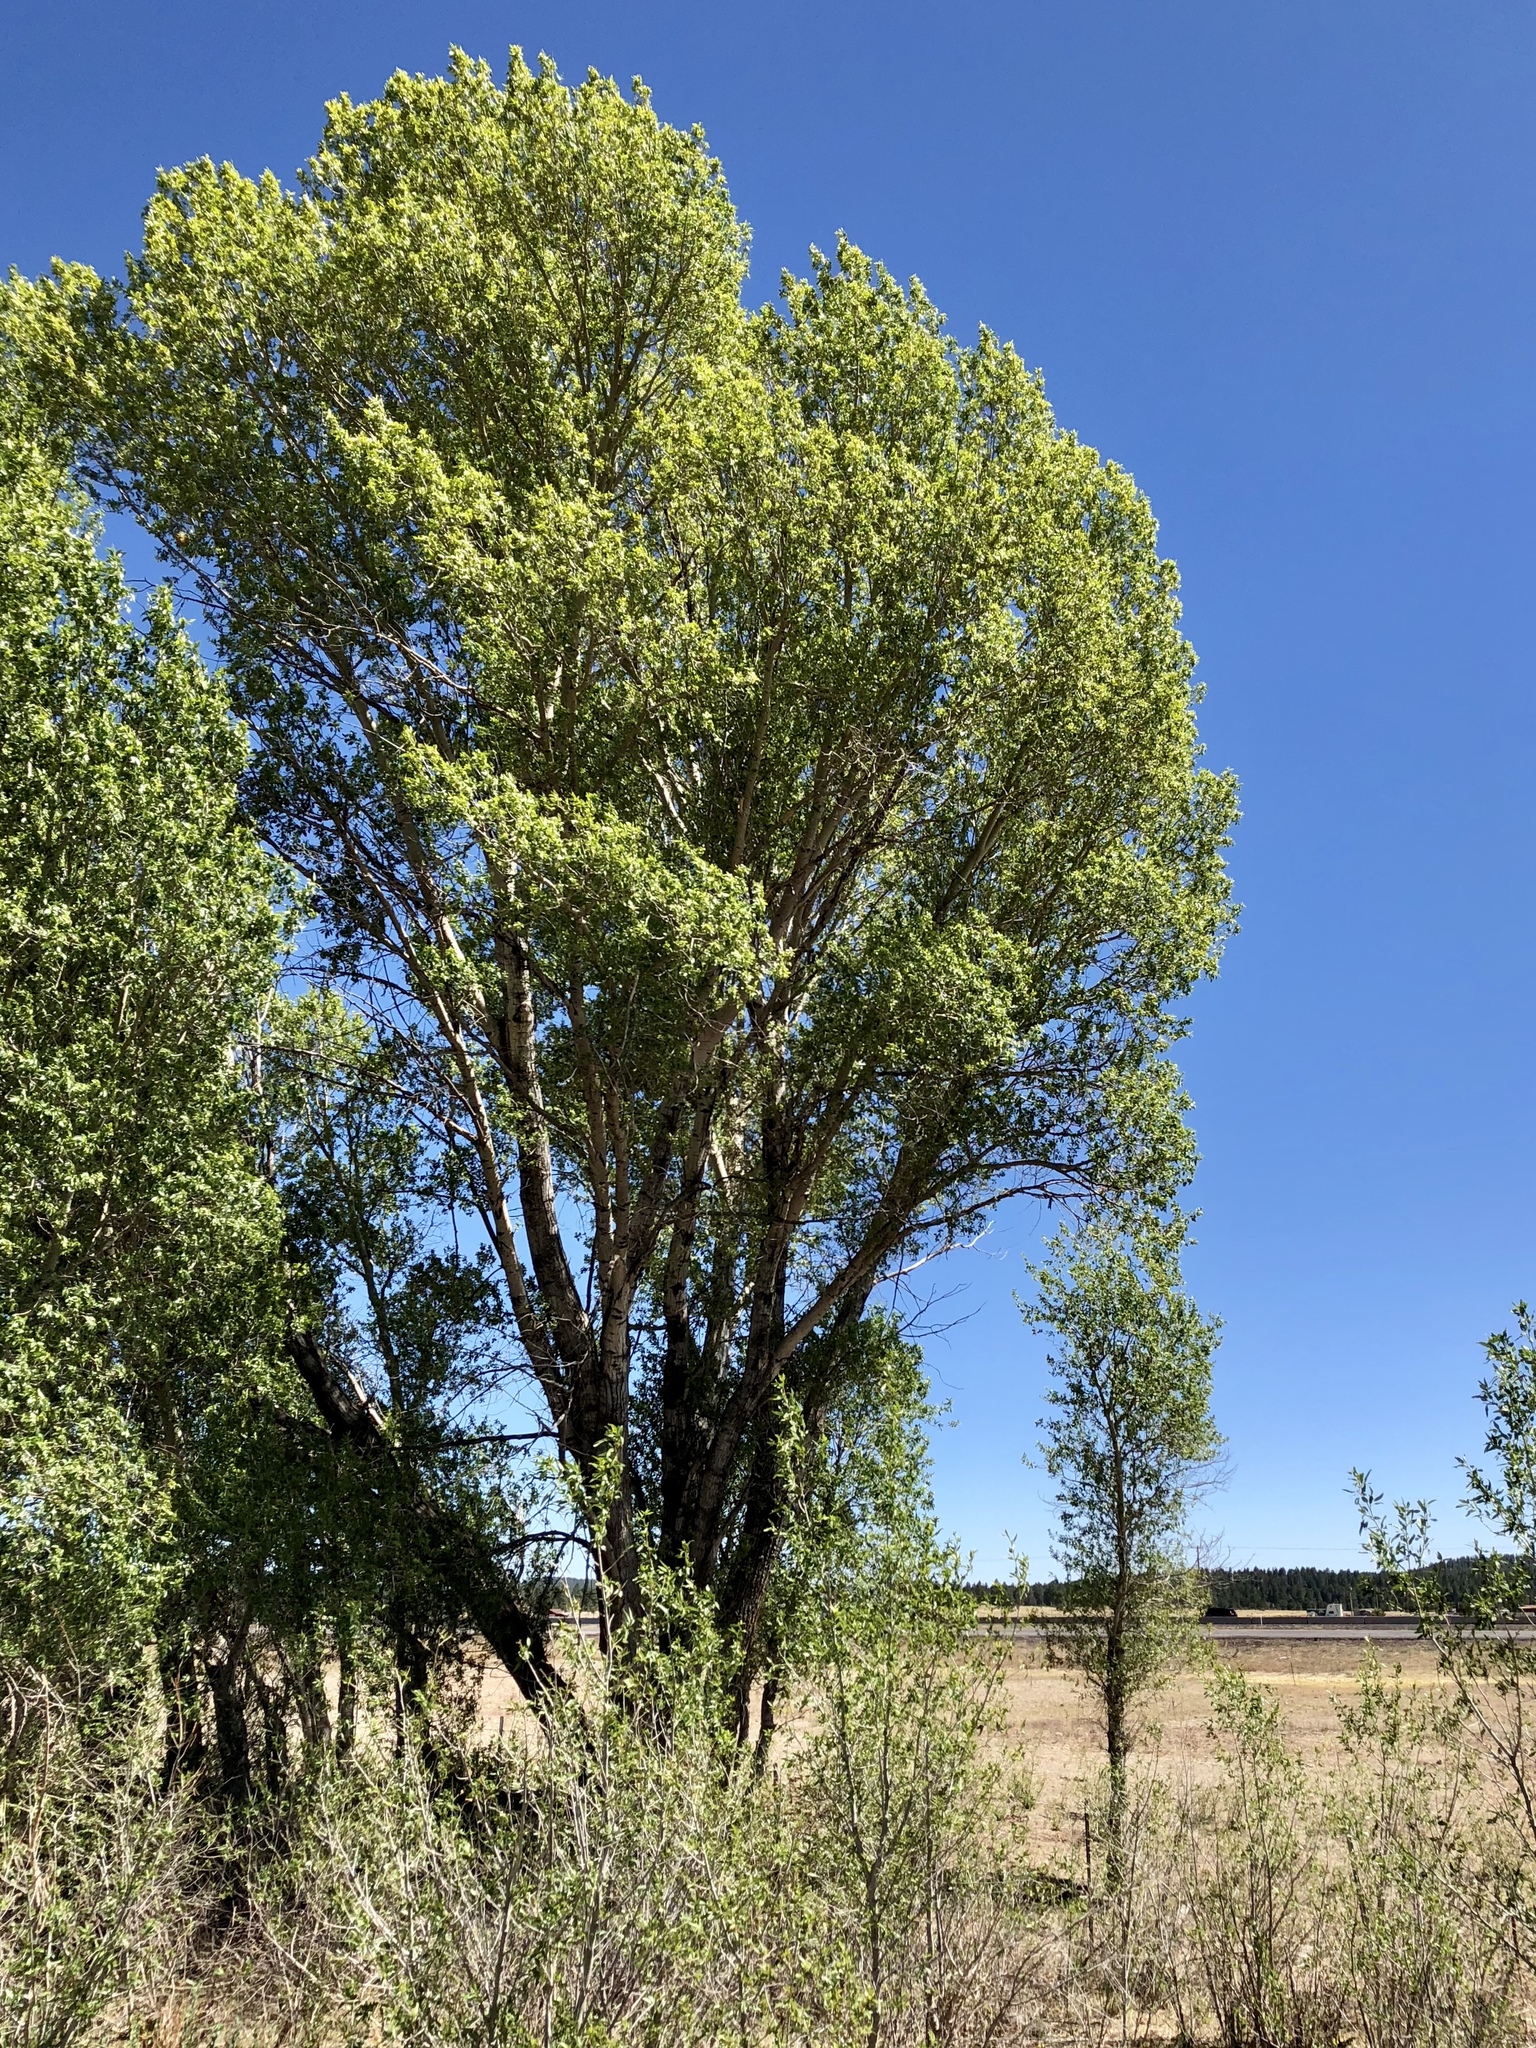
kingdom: Plantae
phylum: Tracheophyta
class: Magnoliopsida
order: Malpighiales
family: Salicaceae
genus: Populus
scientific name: Populus tremuloides
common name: Quaking aspen
